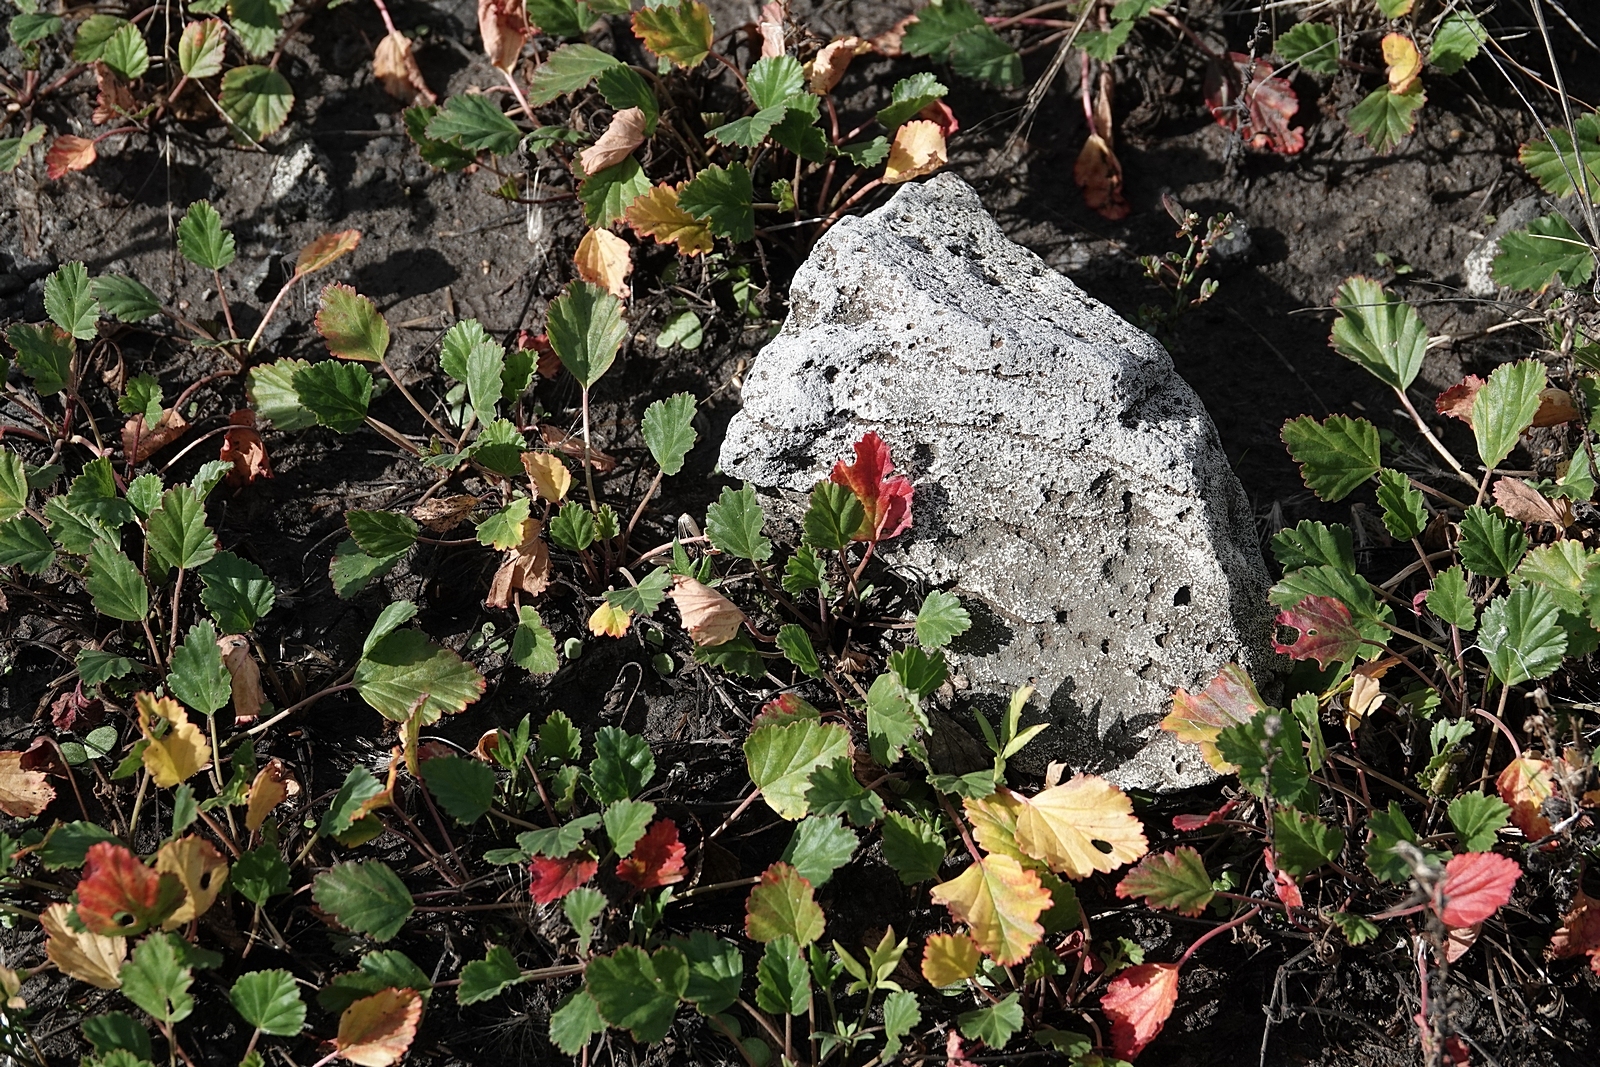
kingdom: Plantae
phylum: Tracheophyta
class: Magnoliopsida
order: Geraniales
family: Geraniaceae
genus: Pelargonium
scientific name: Pelargonium
